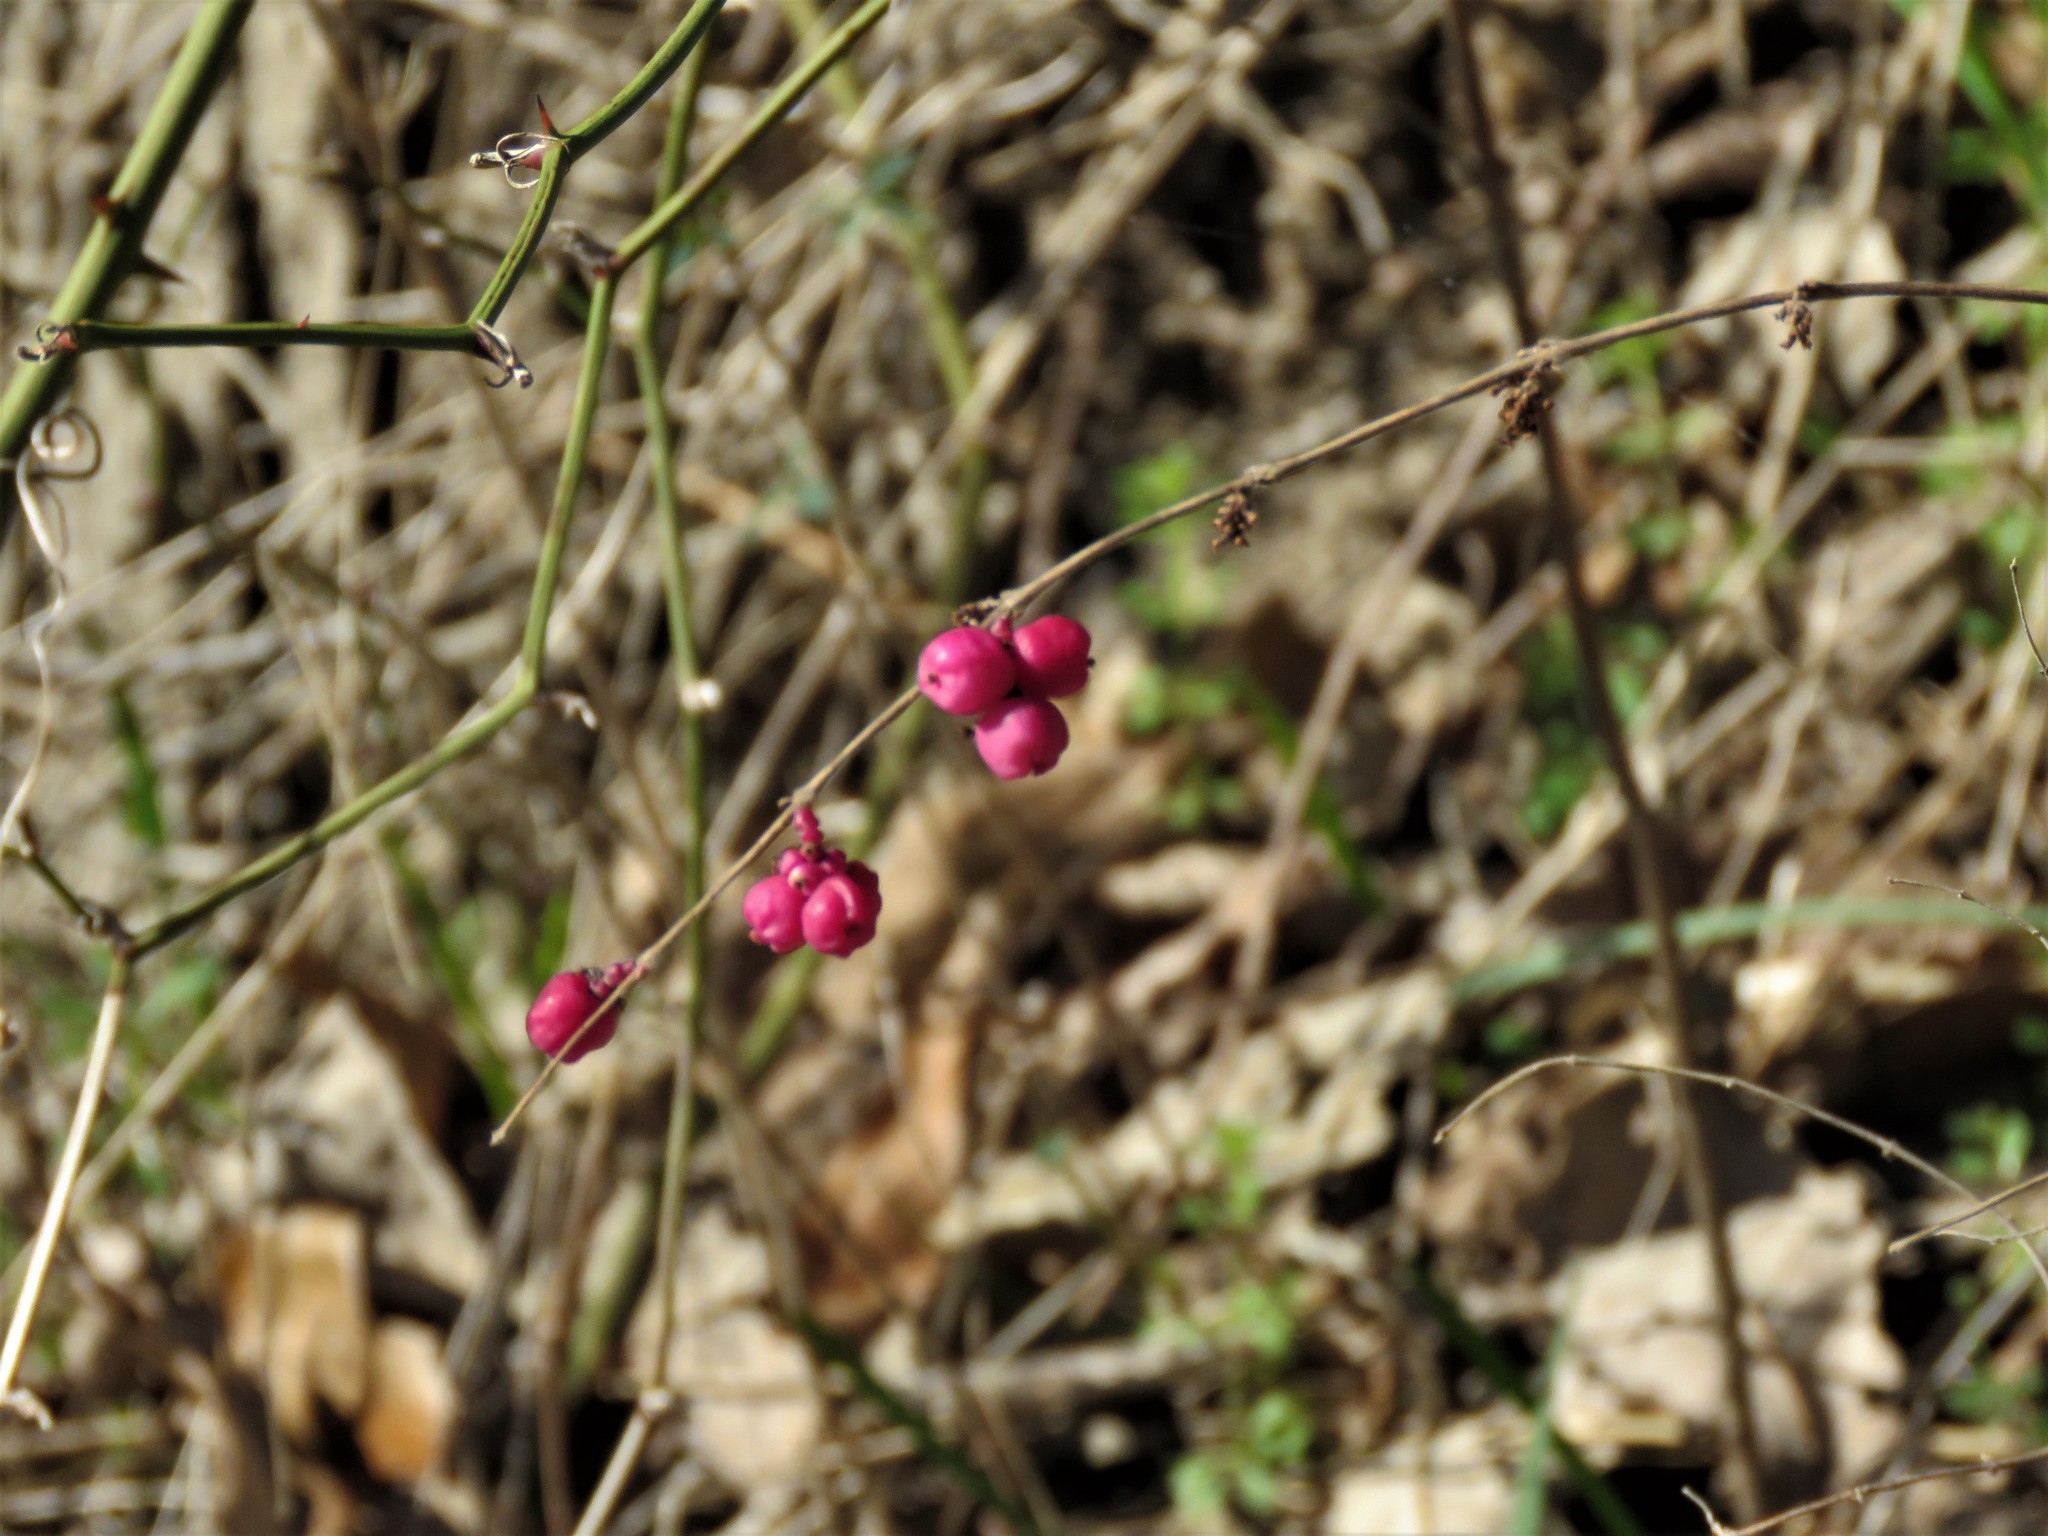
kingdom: Plantae
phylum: Tracheophyta
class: Magnoliopsida
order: Dipsacales
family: Caprifoliaceae
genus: Symphoricarpos
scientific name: Symphoricarpos orbiculatus
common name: Coralberry
